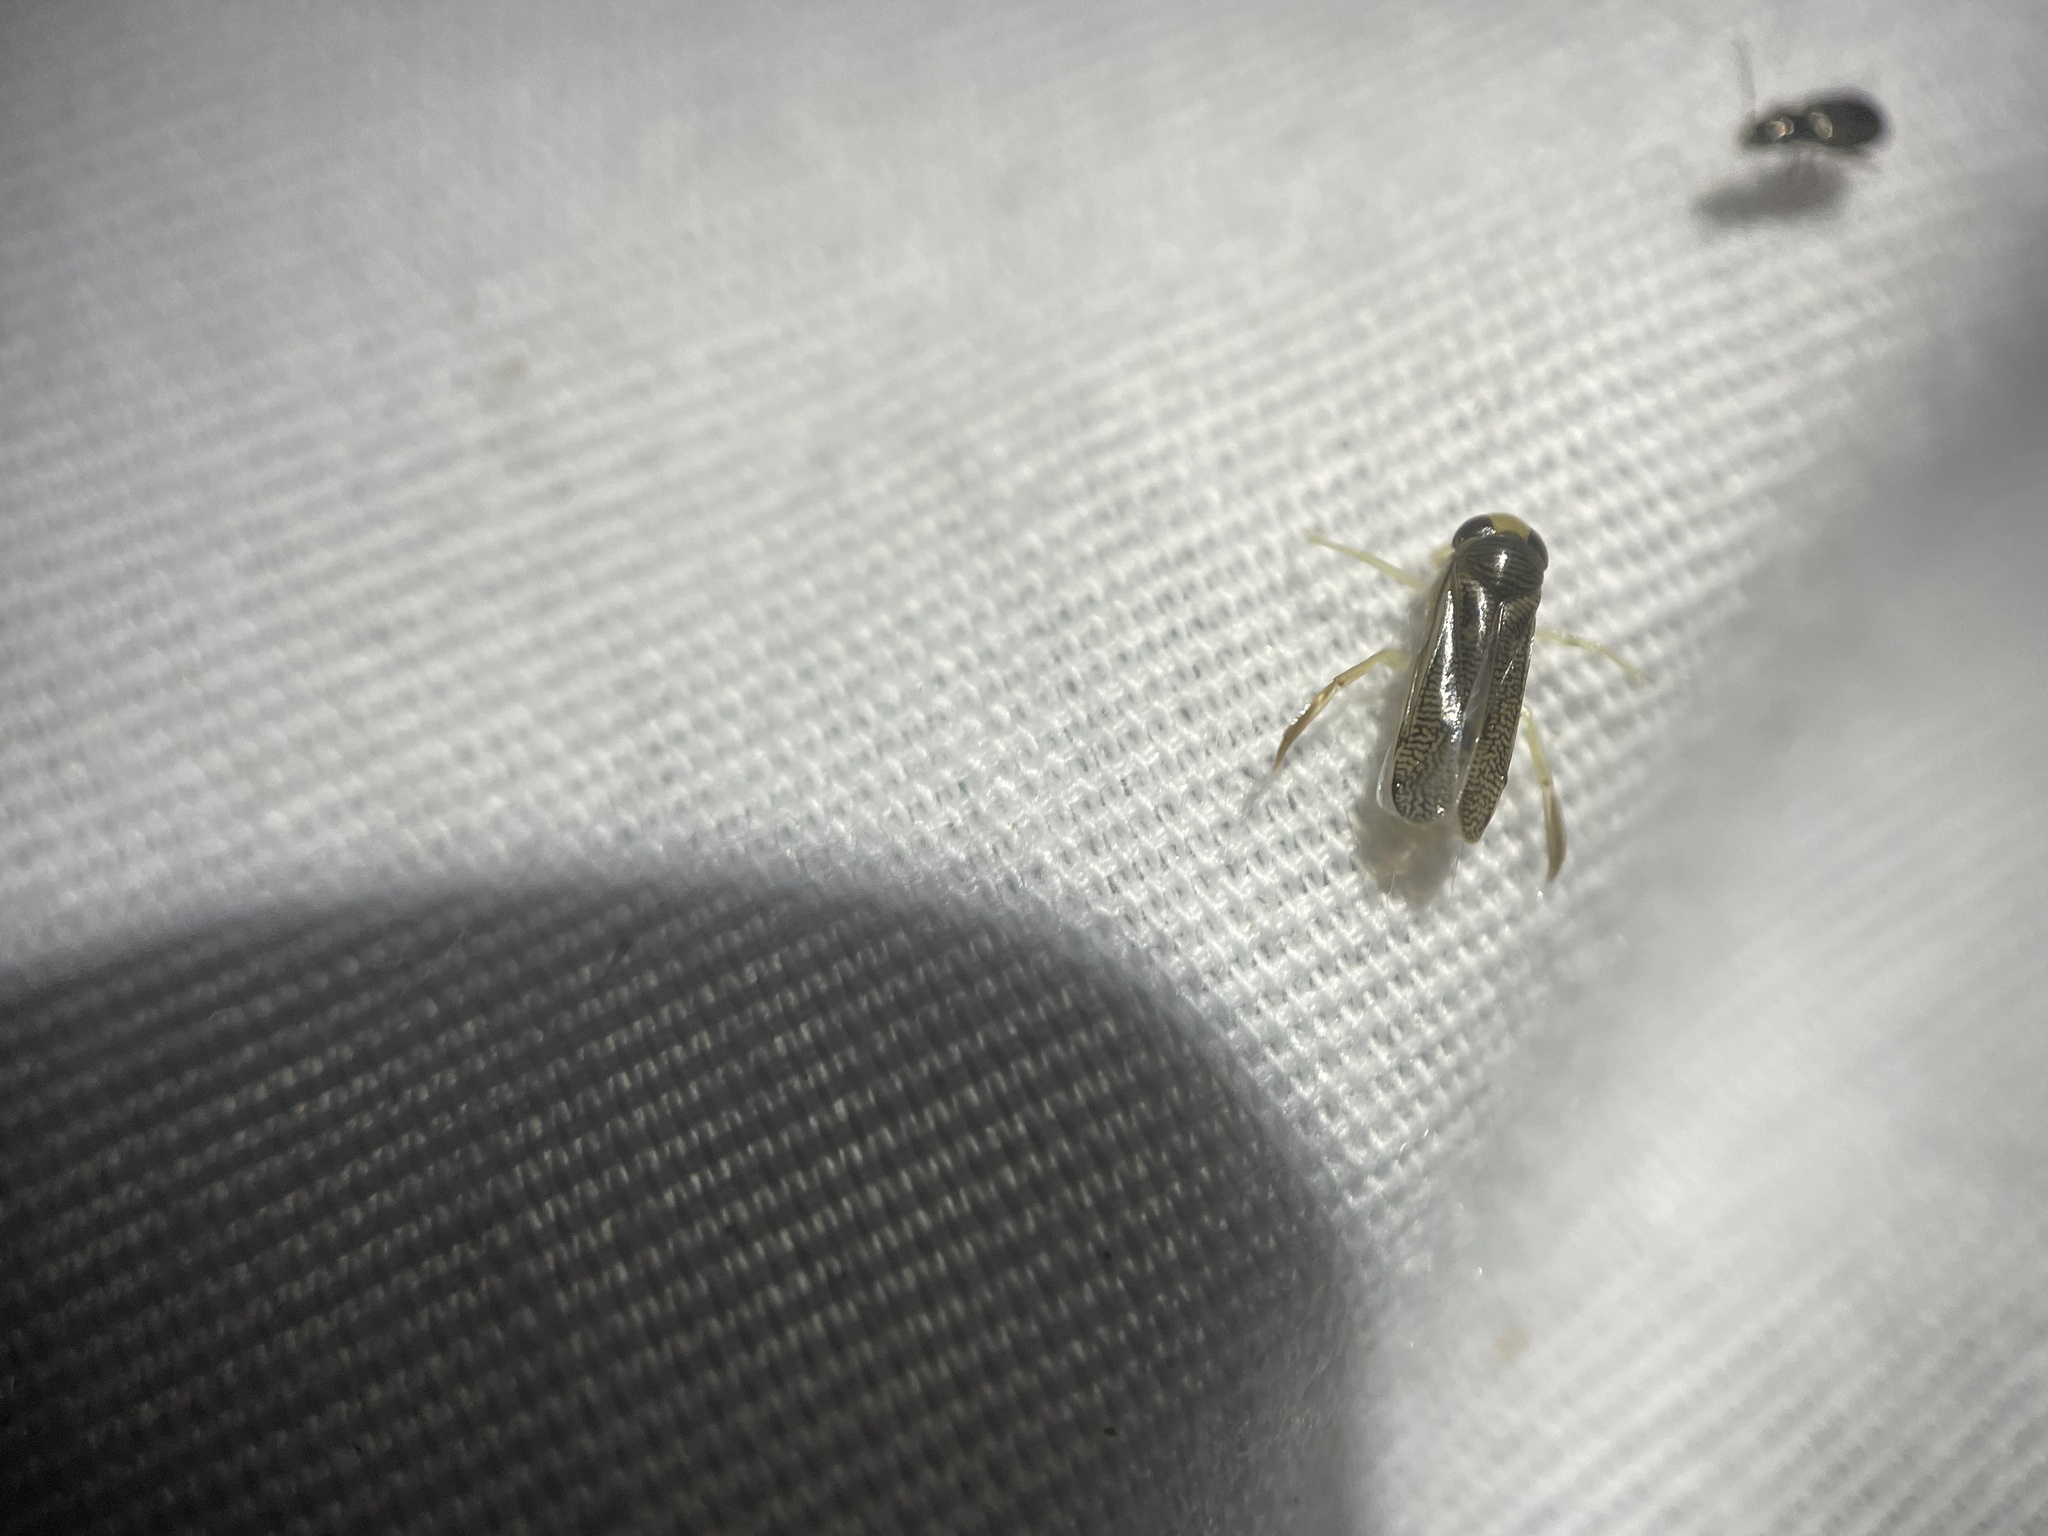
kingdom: Animalia
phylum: Arthropoda
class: Insecta
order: Hemiptera
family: Corixidae
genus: Trichocorixa
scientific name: Trichocorixa
